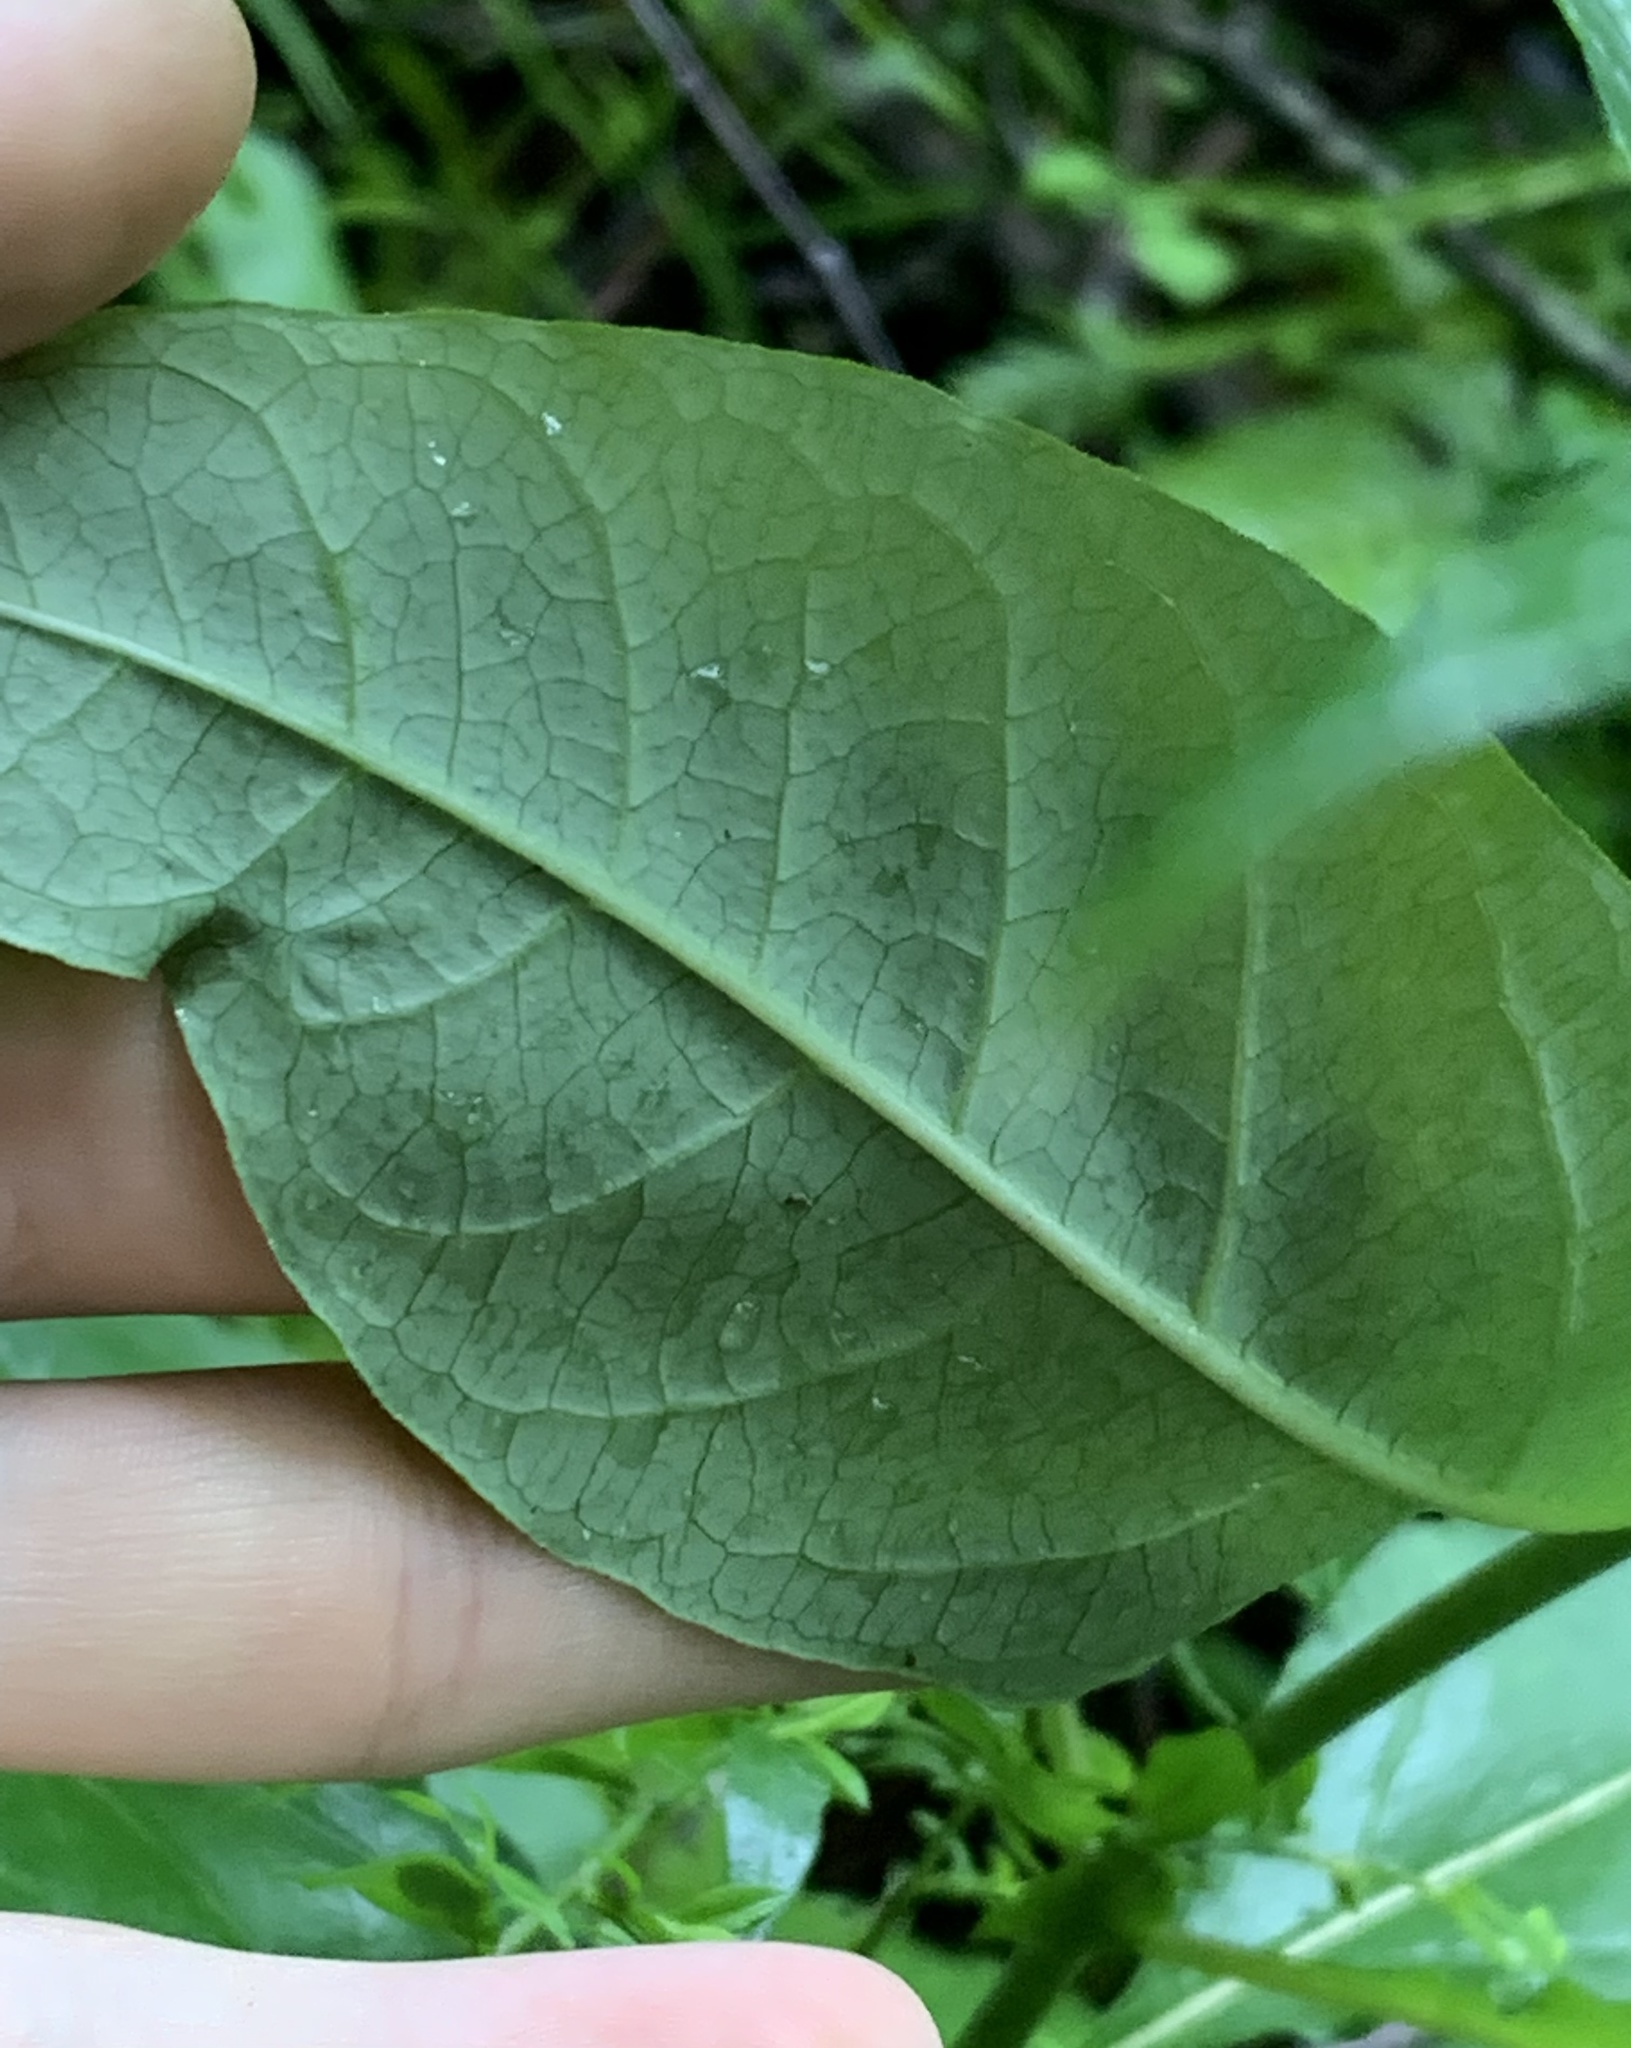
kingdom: Plantae
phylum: Tracheophyta
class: Magnoliopsida
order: Gentianales
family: Apocynaceae
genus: Asclepias
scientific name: Asclepias exaltata
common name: Poke milkweed
